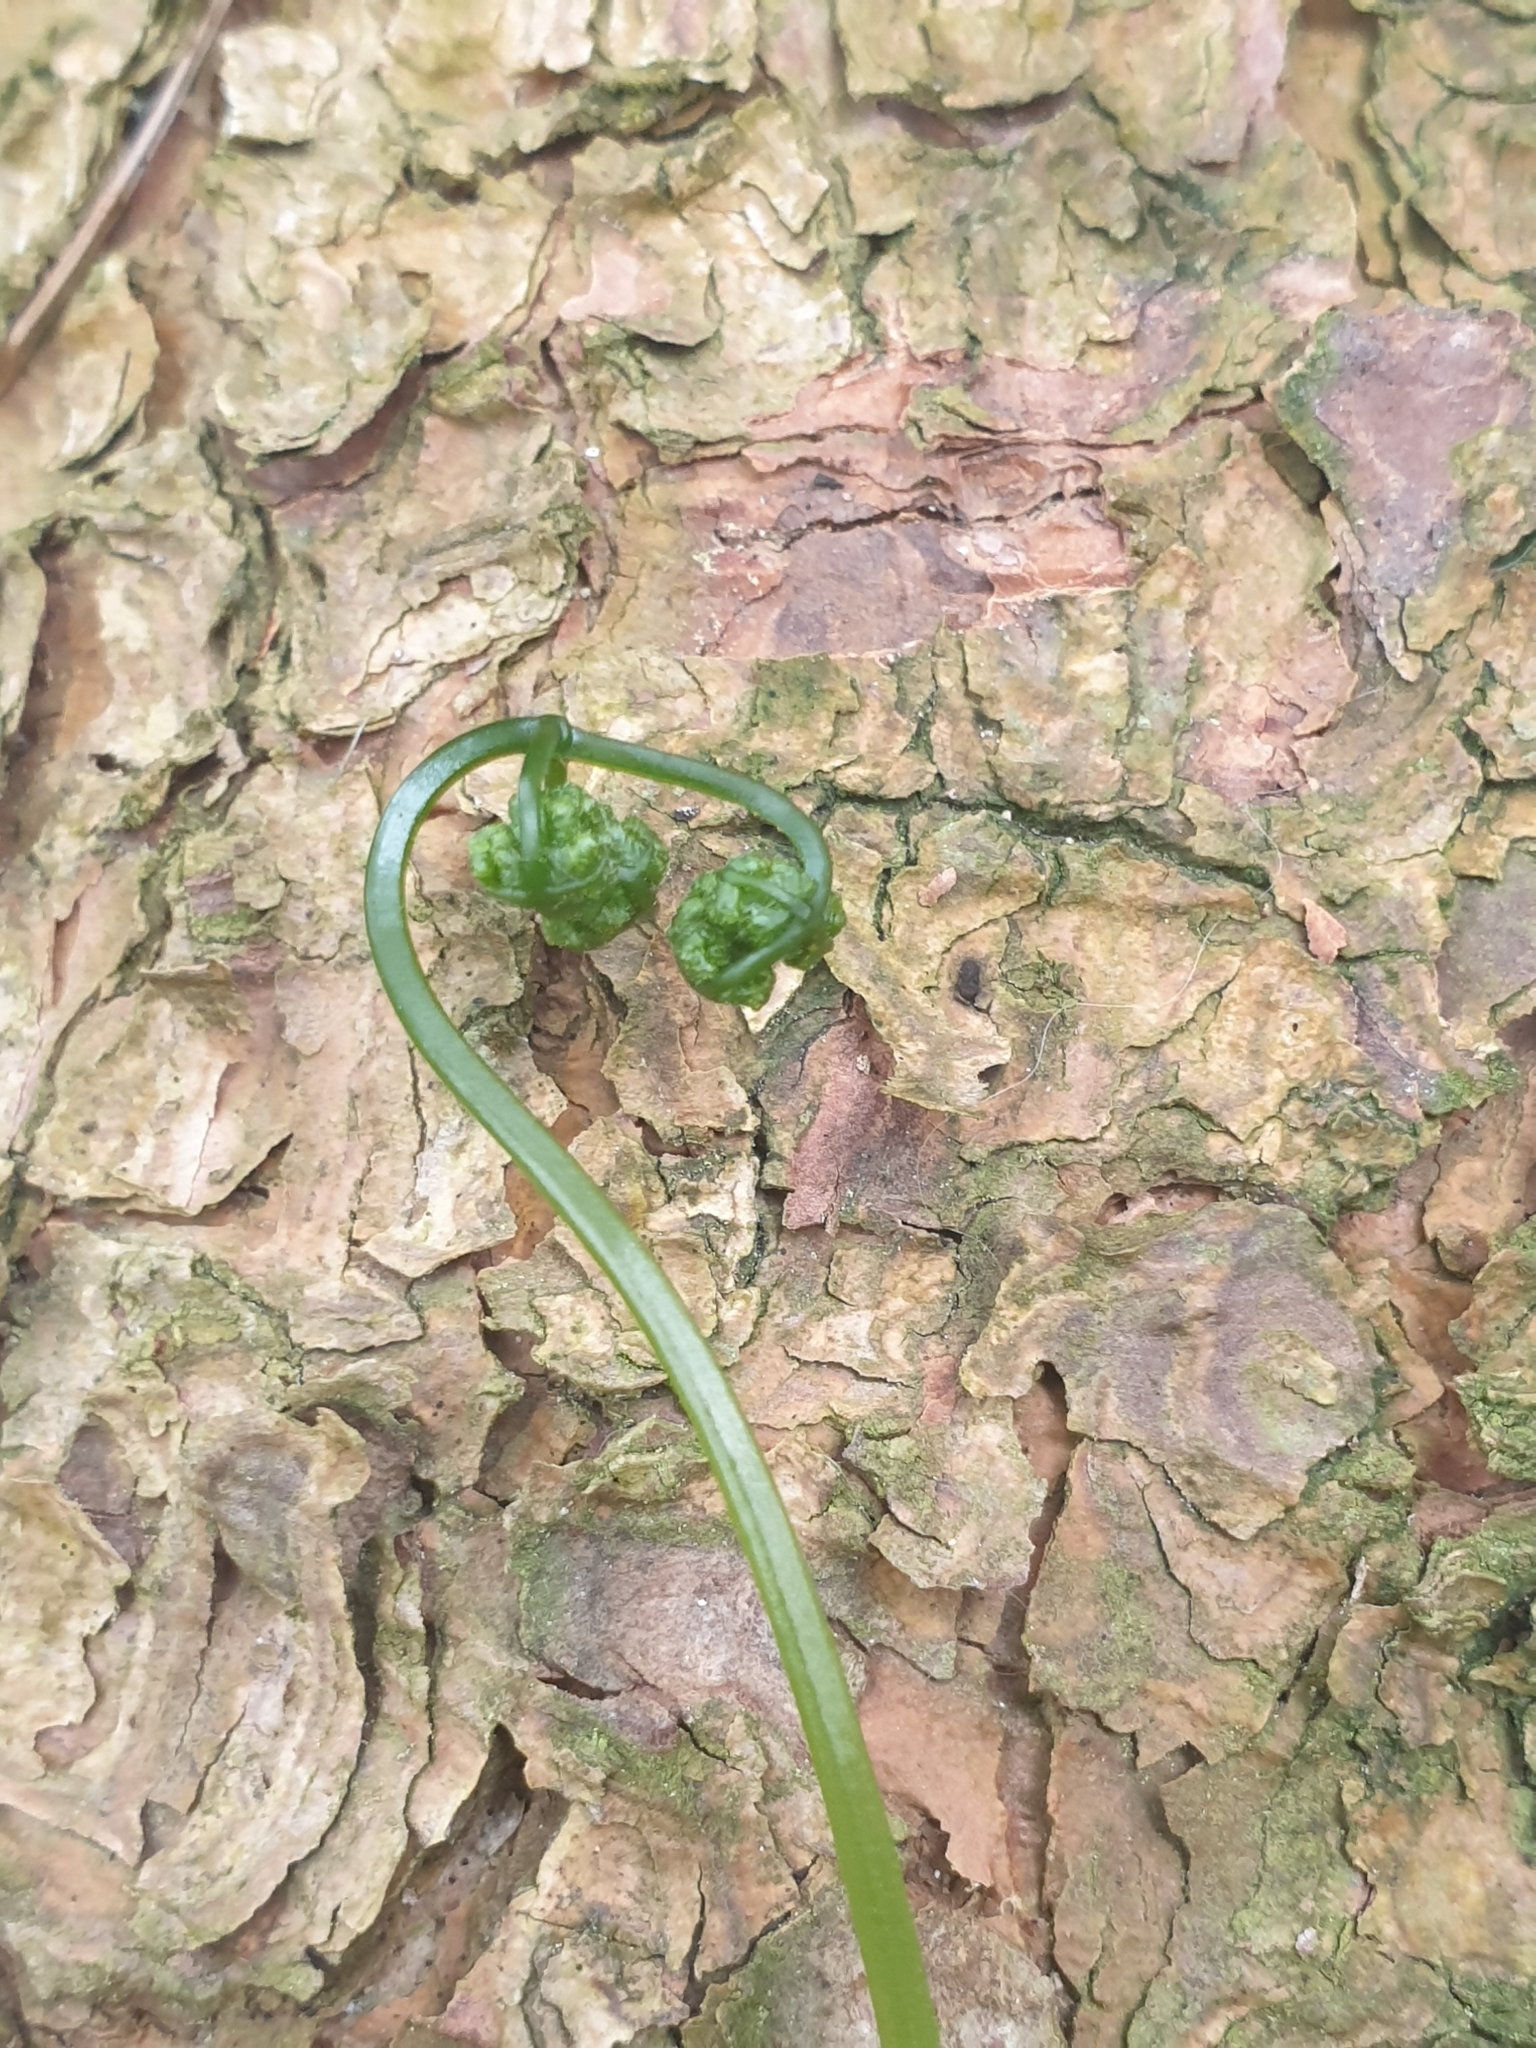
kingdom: Plantae
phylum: Tracheophyta
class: Polypodiopsida
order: Polypodiales
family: Dennstaedtiaceae
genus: Pteridium
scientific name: Pteridium aquilinum
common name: Bracken
